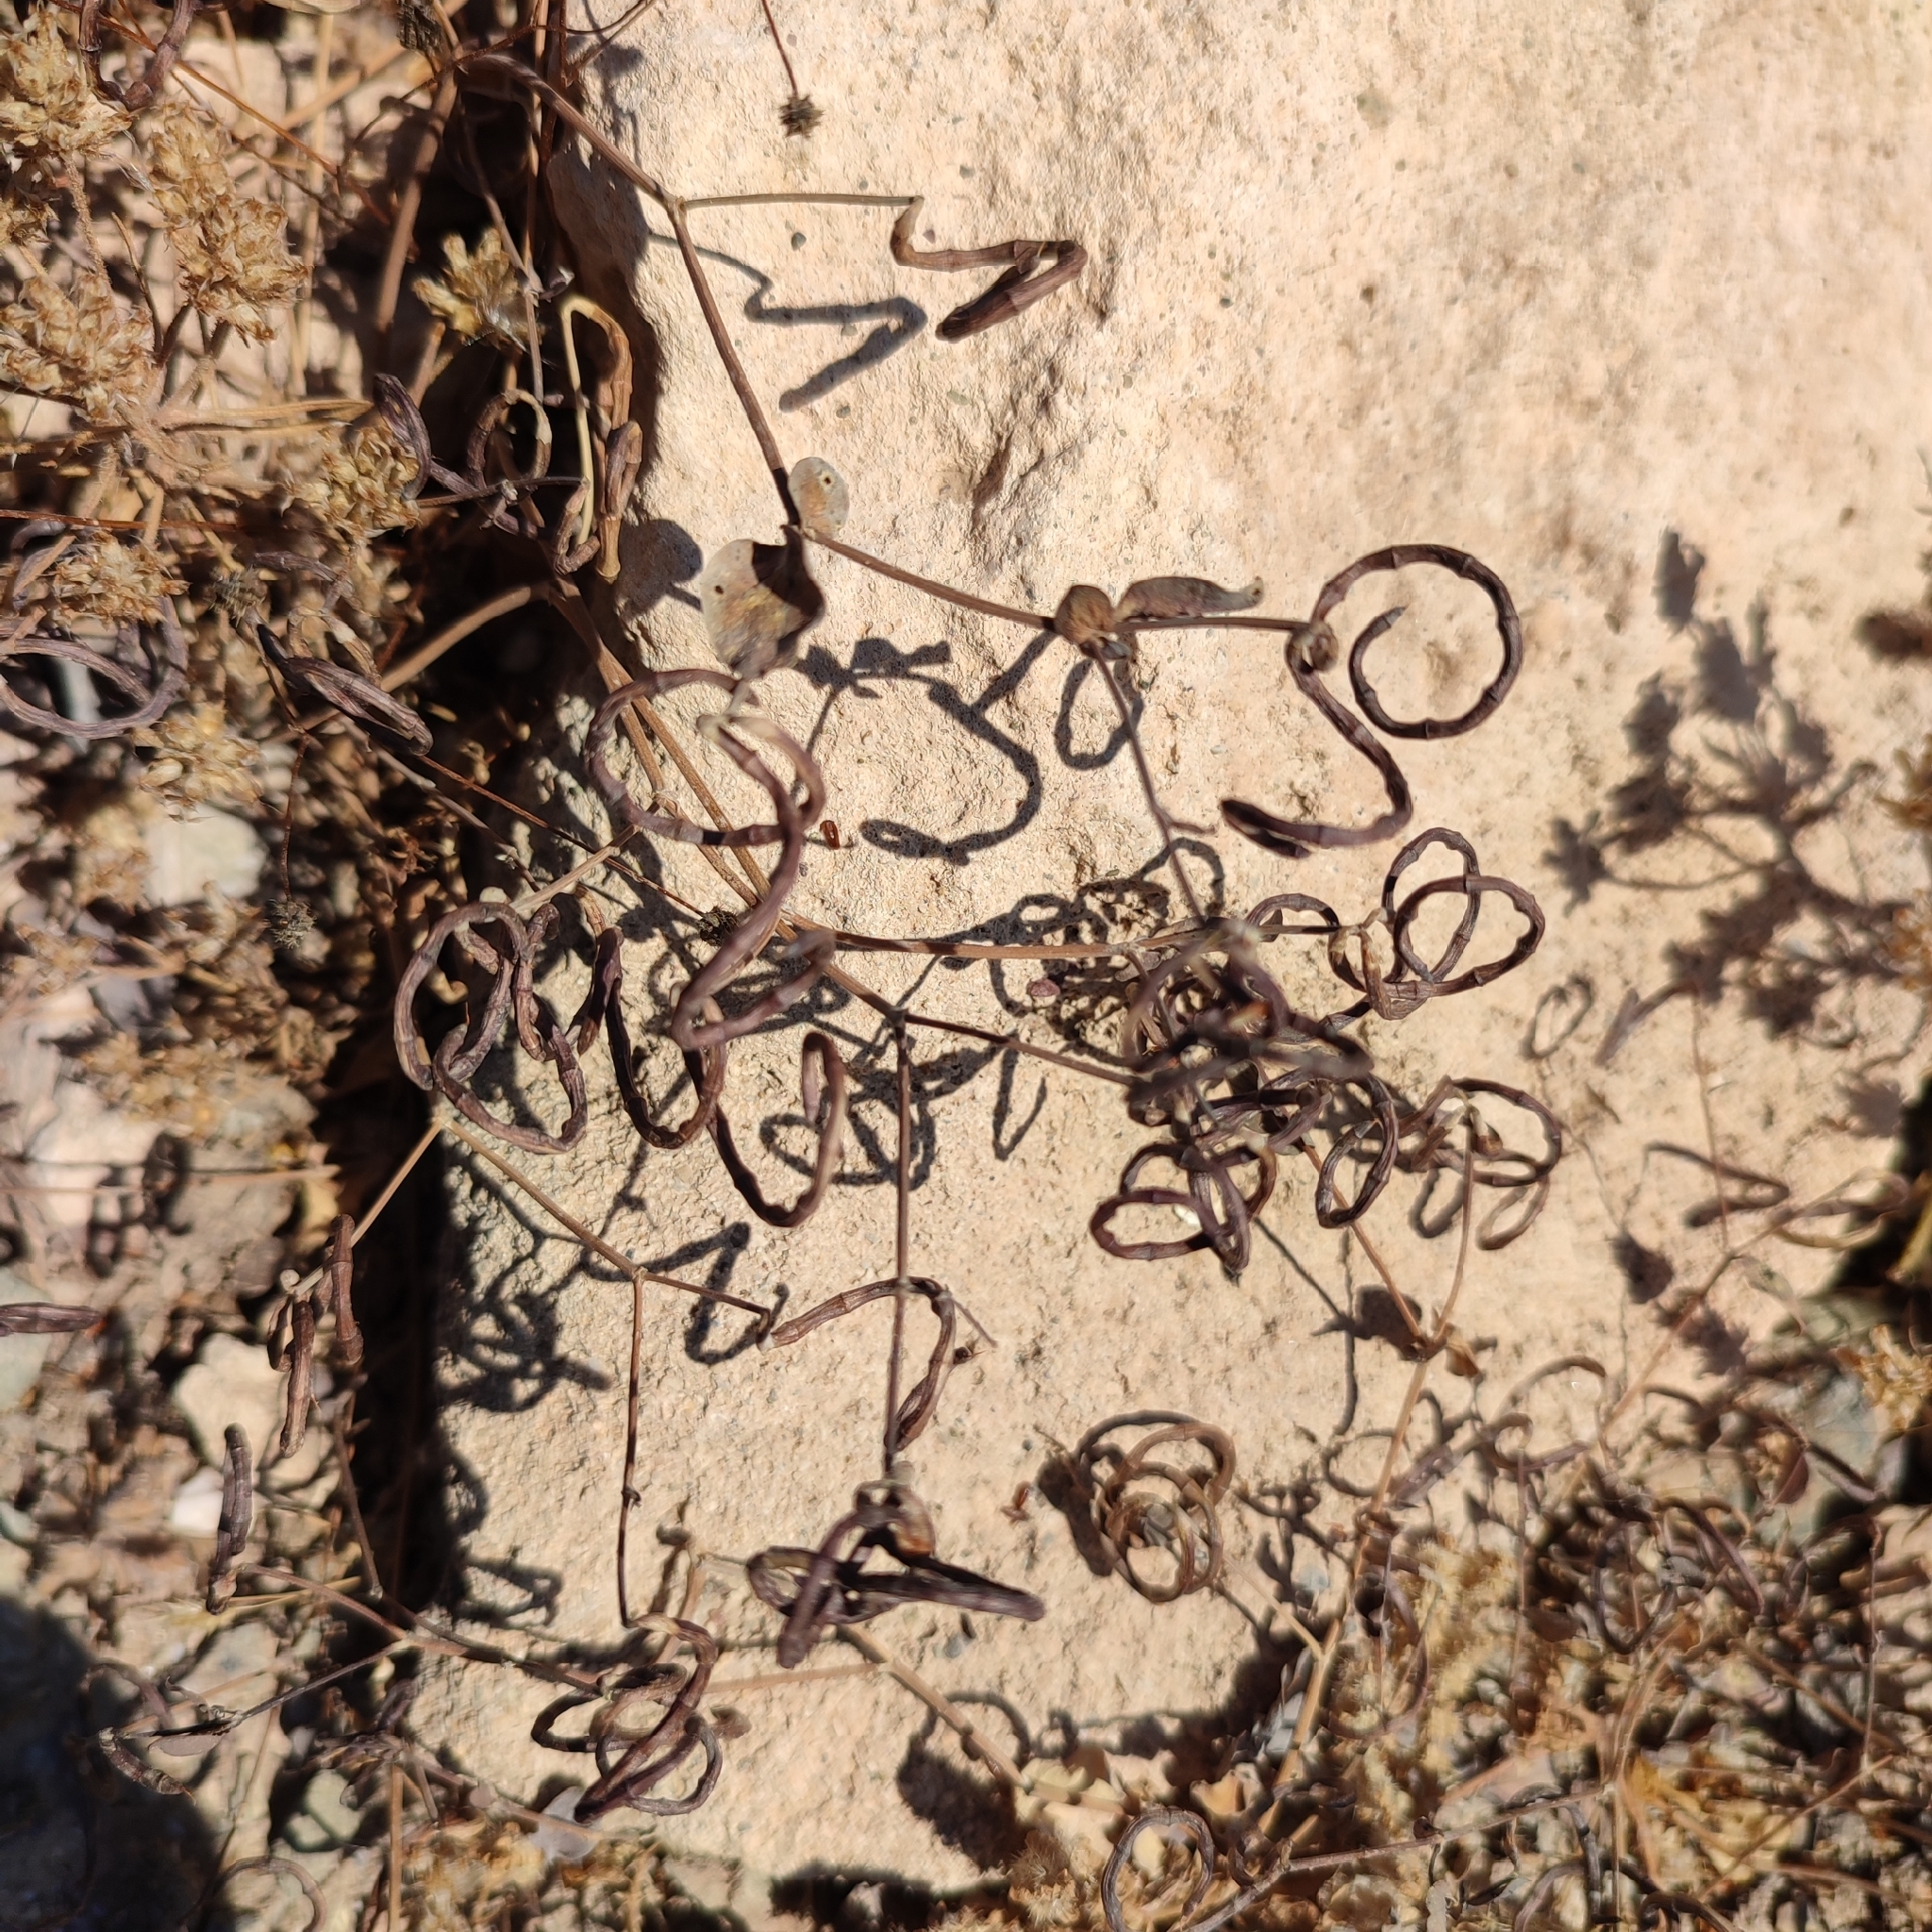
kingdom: Plantae
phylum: Tracheophyta
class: Magnoliopsida
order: Fabales
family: Fabaceae
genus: Coronilla
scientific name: Coronilla scorpioides
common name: Annual scorpion-vetch
